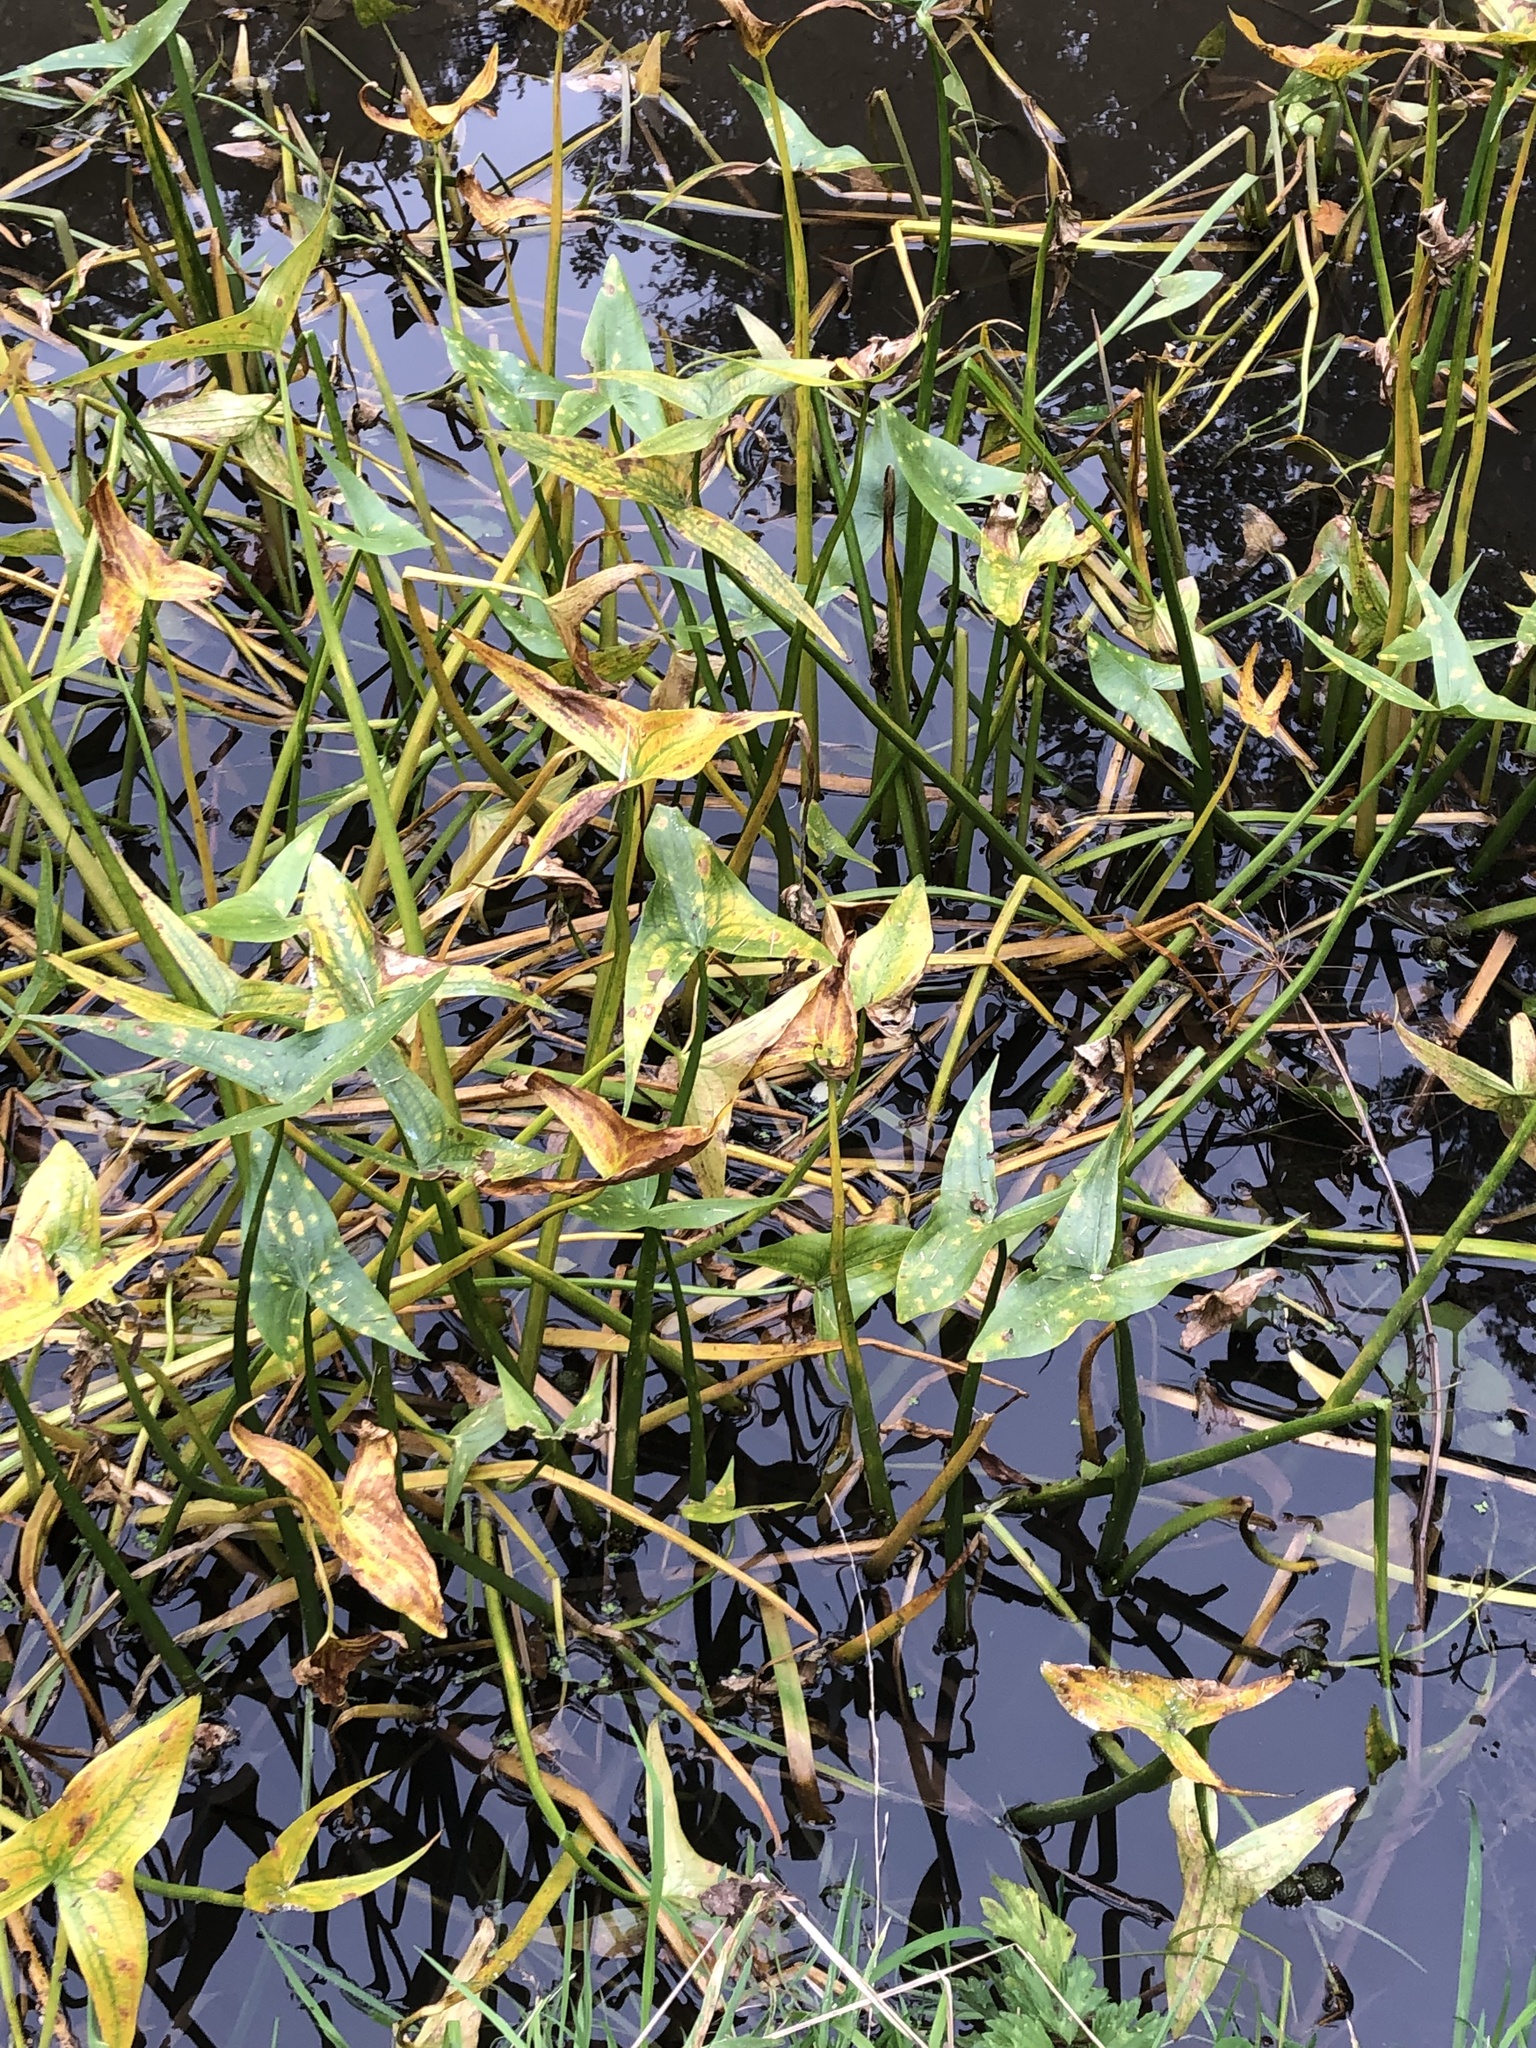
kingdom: Plantae
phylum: Tracheophyta
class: Liliopsida
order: Alismatales
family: Alismataceae
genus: Sagittaria
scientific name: Sagittaria sagittifolia
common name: Arrowhead
